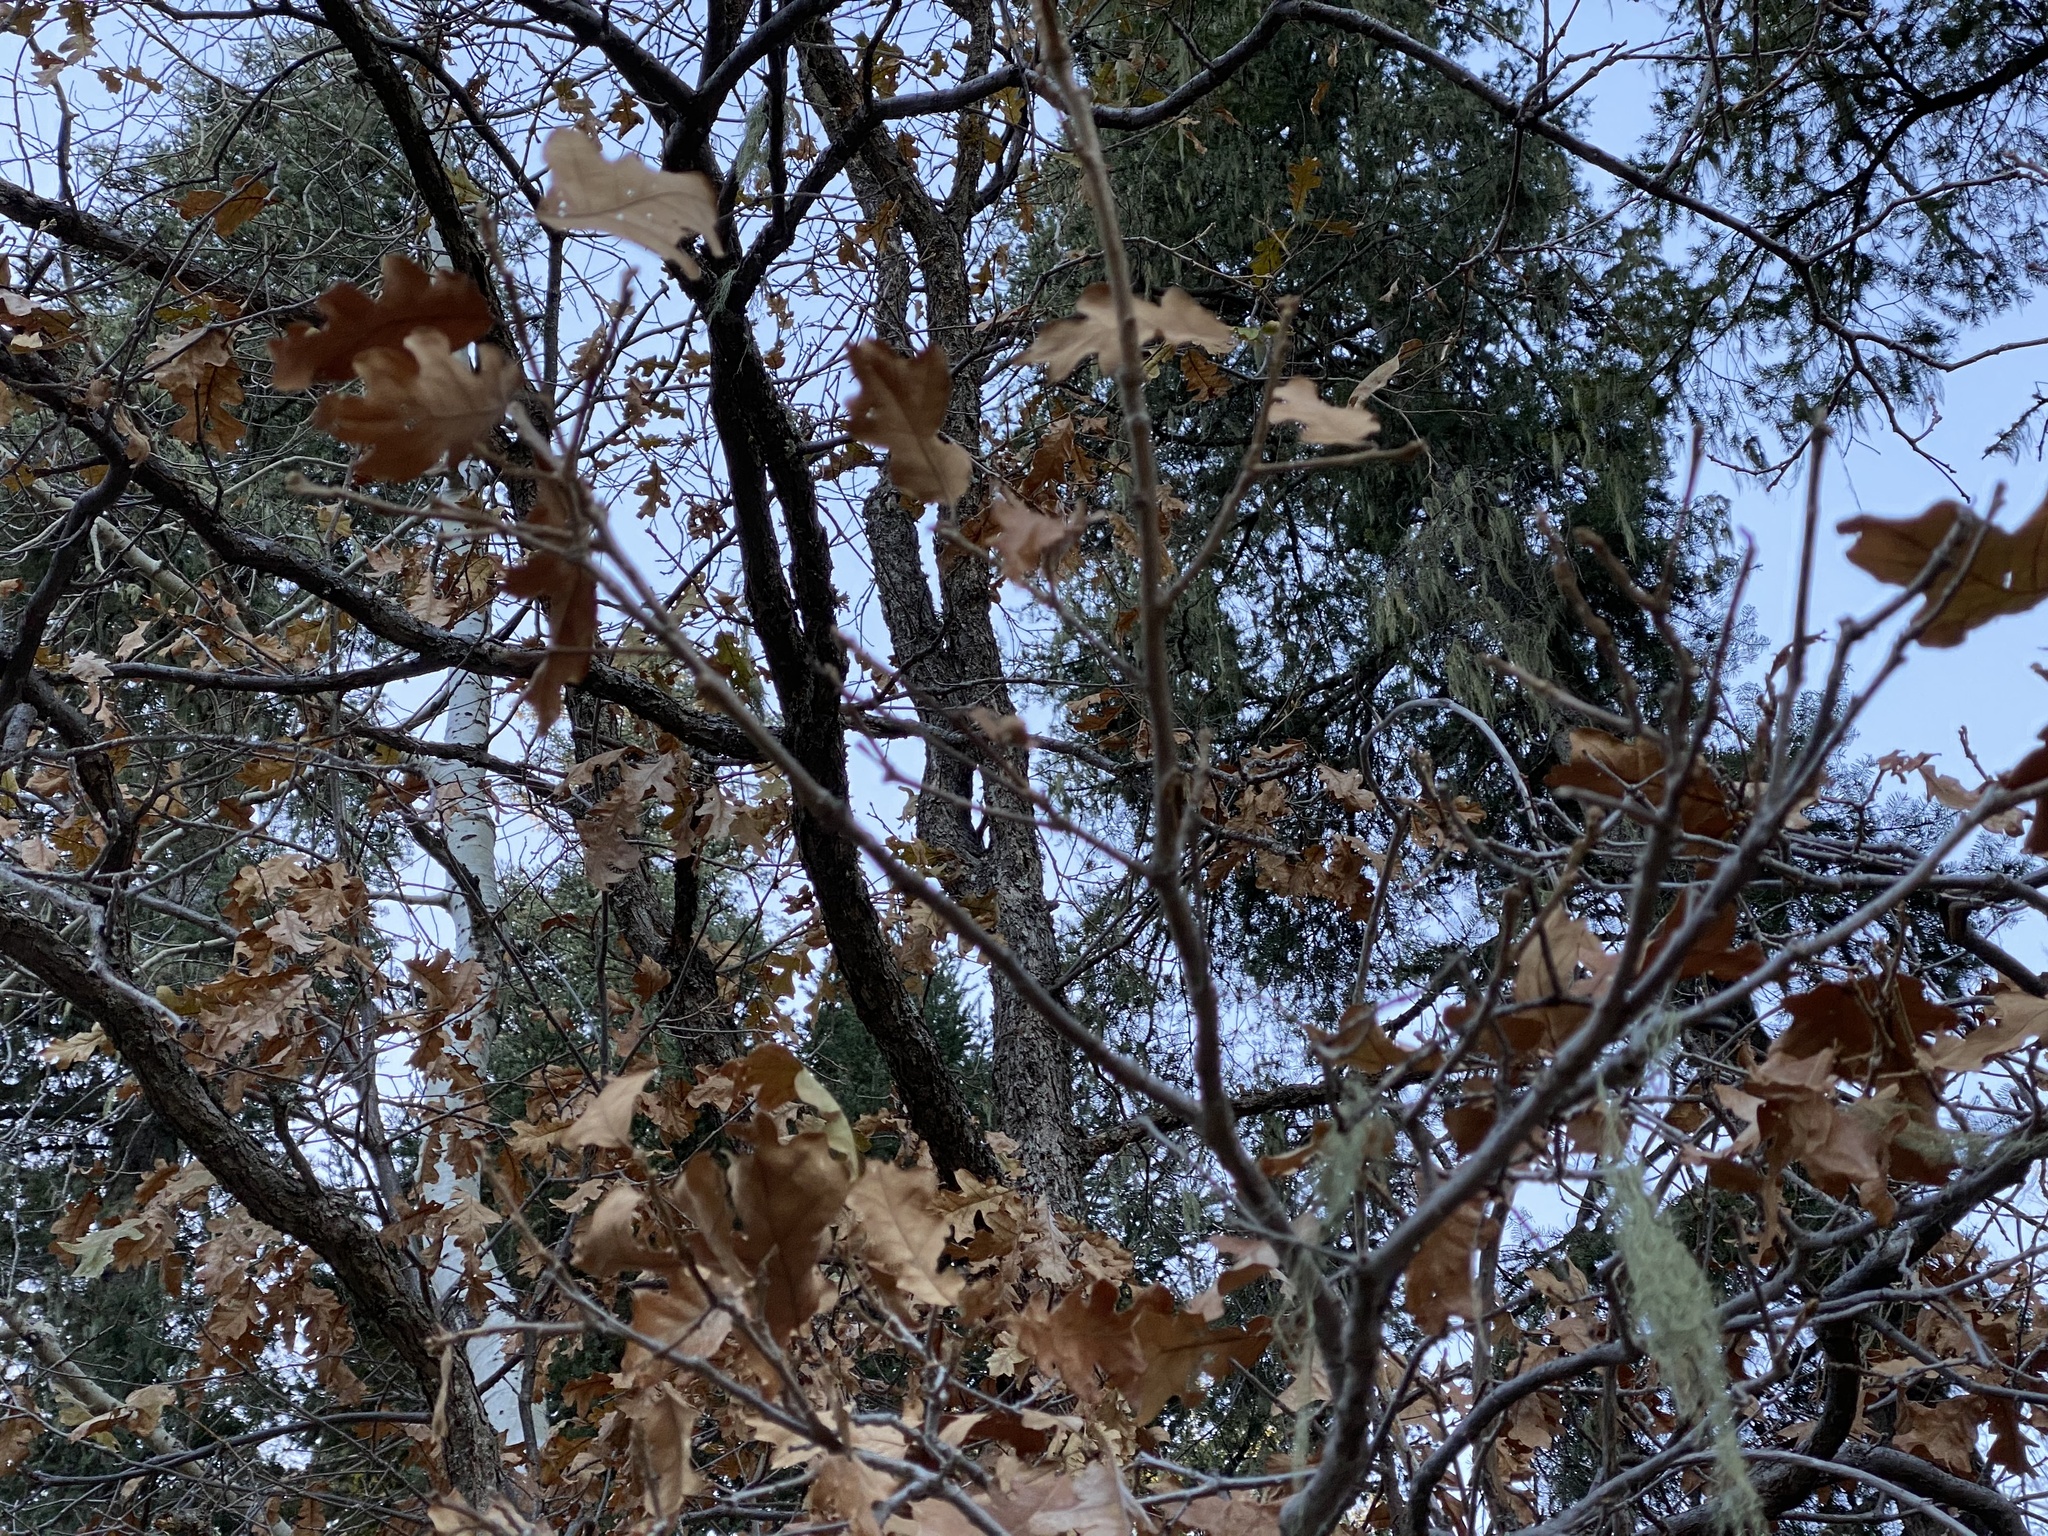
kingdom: Plantae
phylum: Tracheophyta
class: Magnoliopsida
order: Fagales
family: Fagaceae
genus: Quercus
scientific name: Quercus gambelii
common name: Gambel oak
